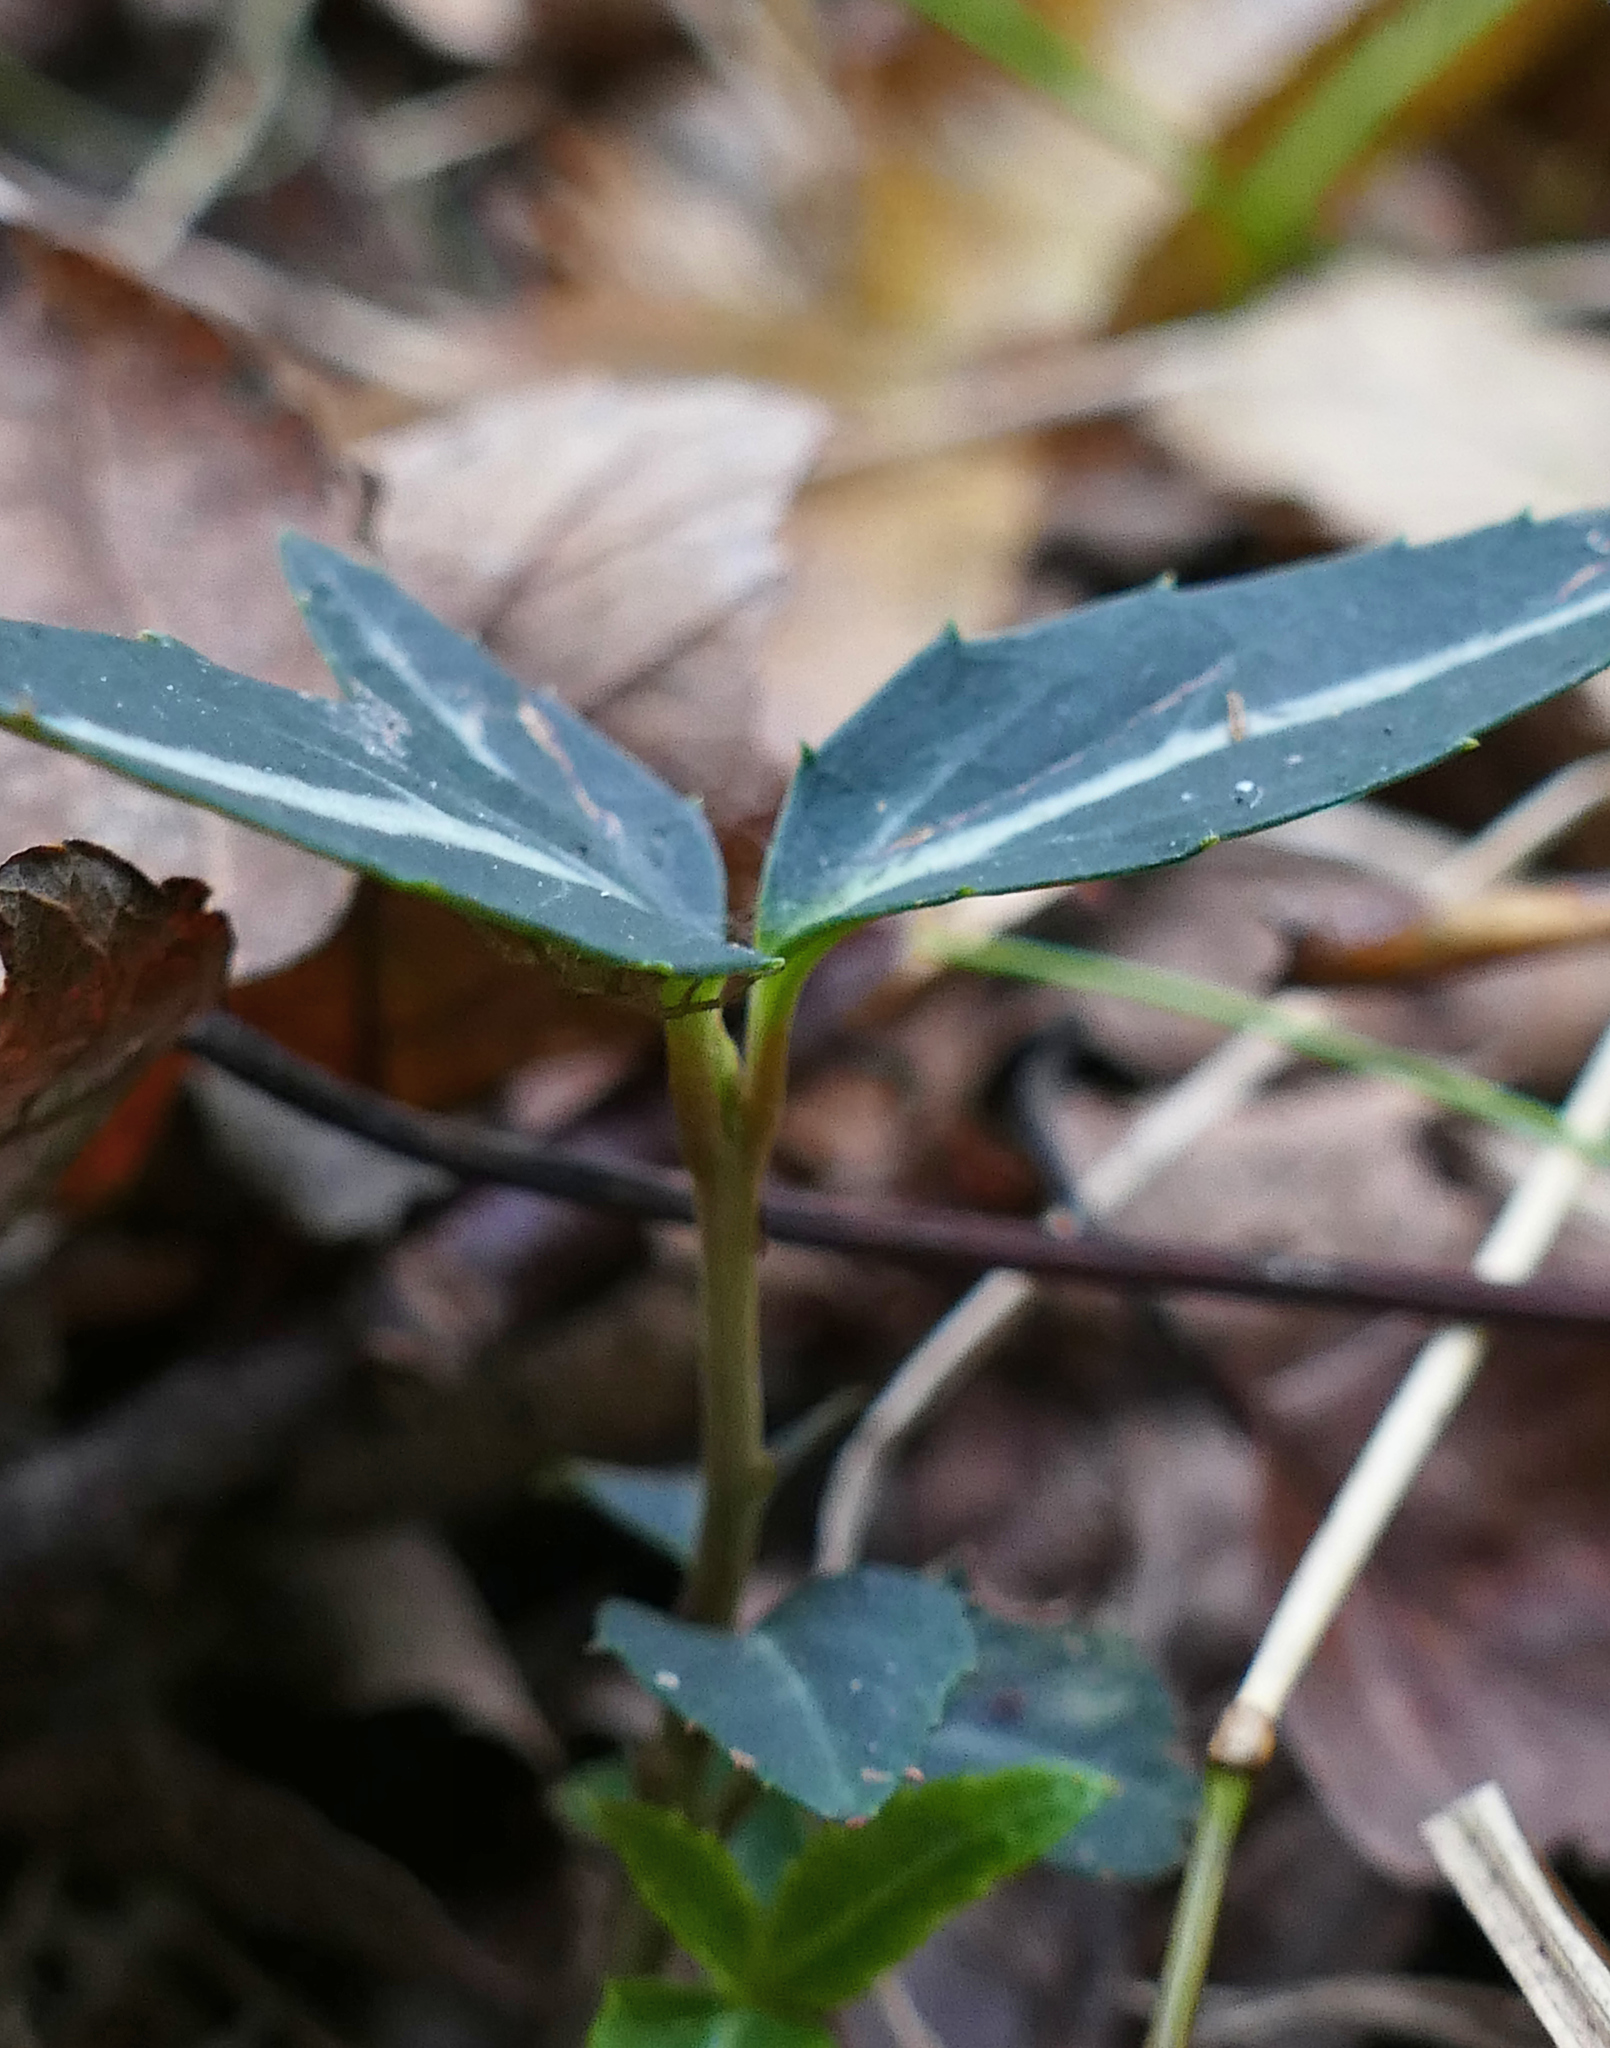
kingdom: Plantae
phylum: Tracheophyta
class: Magnoliopsida
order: Ericales
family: Ericaceae
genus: Chimaphila
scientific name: Chimaphila maculata
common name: Spotted pipsissewa
